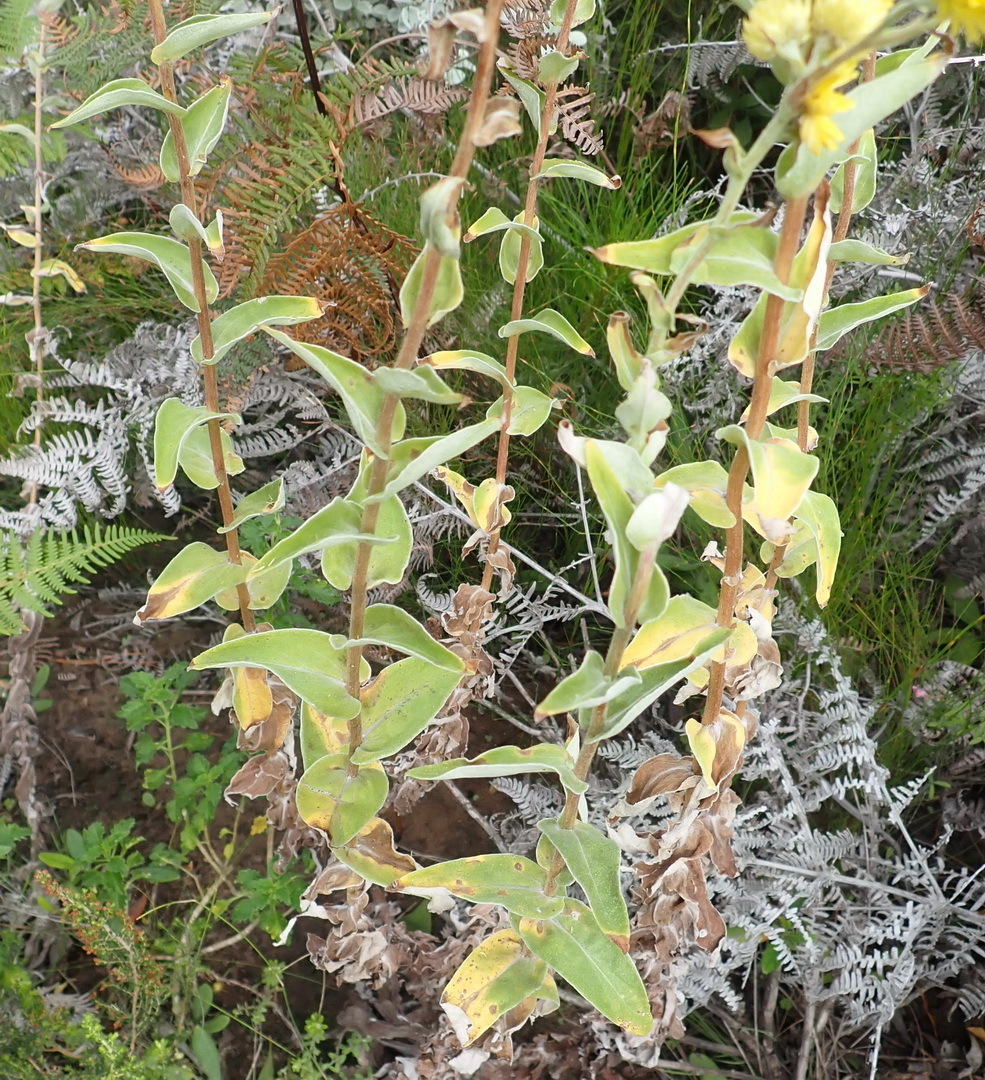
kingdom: Plantae
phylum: Tracheophyta
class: Magnoliopsida
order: Asterales
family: Asteraceae
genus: Helichrysum
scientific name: Helichrysum foetidum
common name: Stinking everlasting
